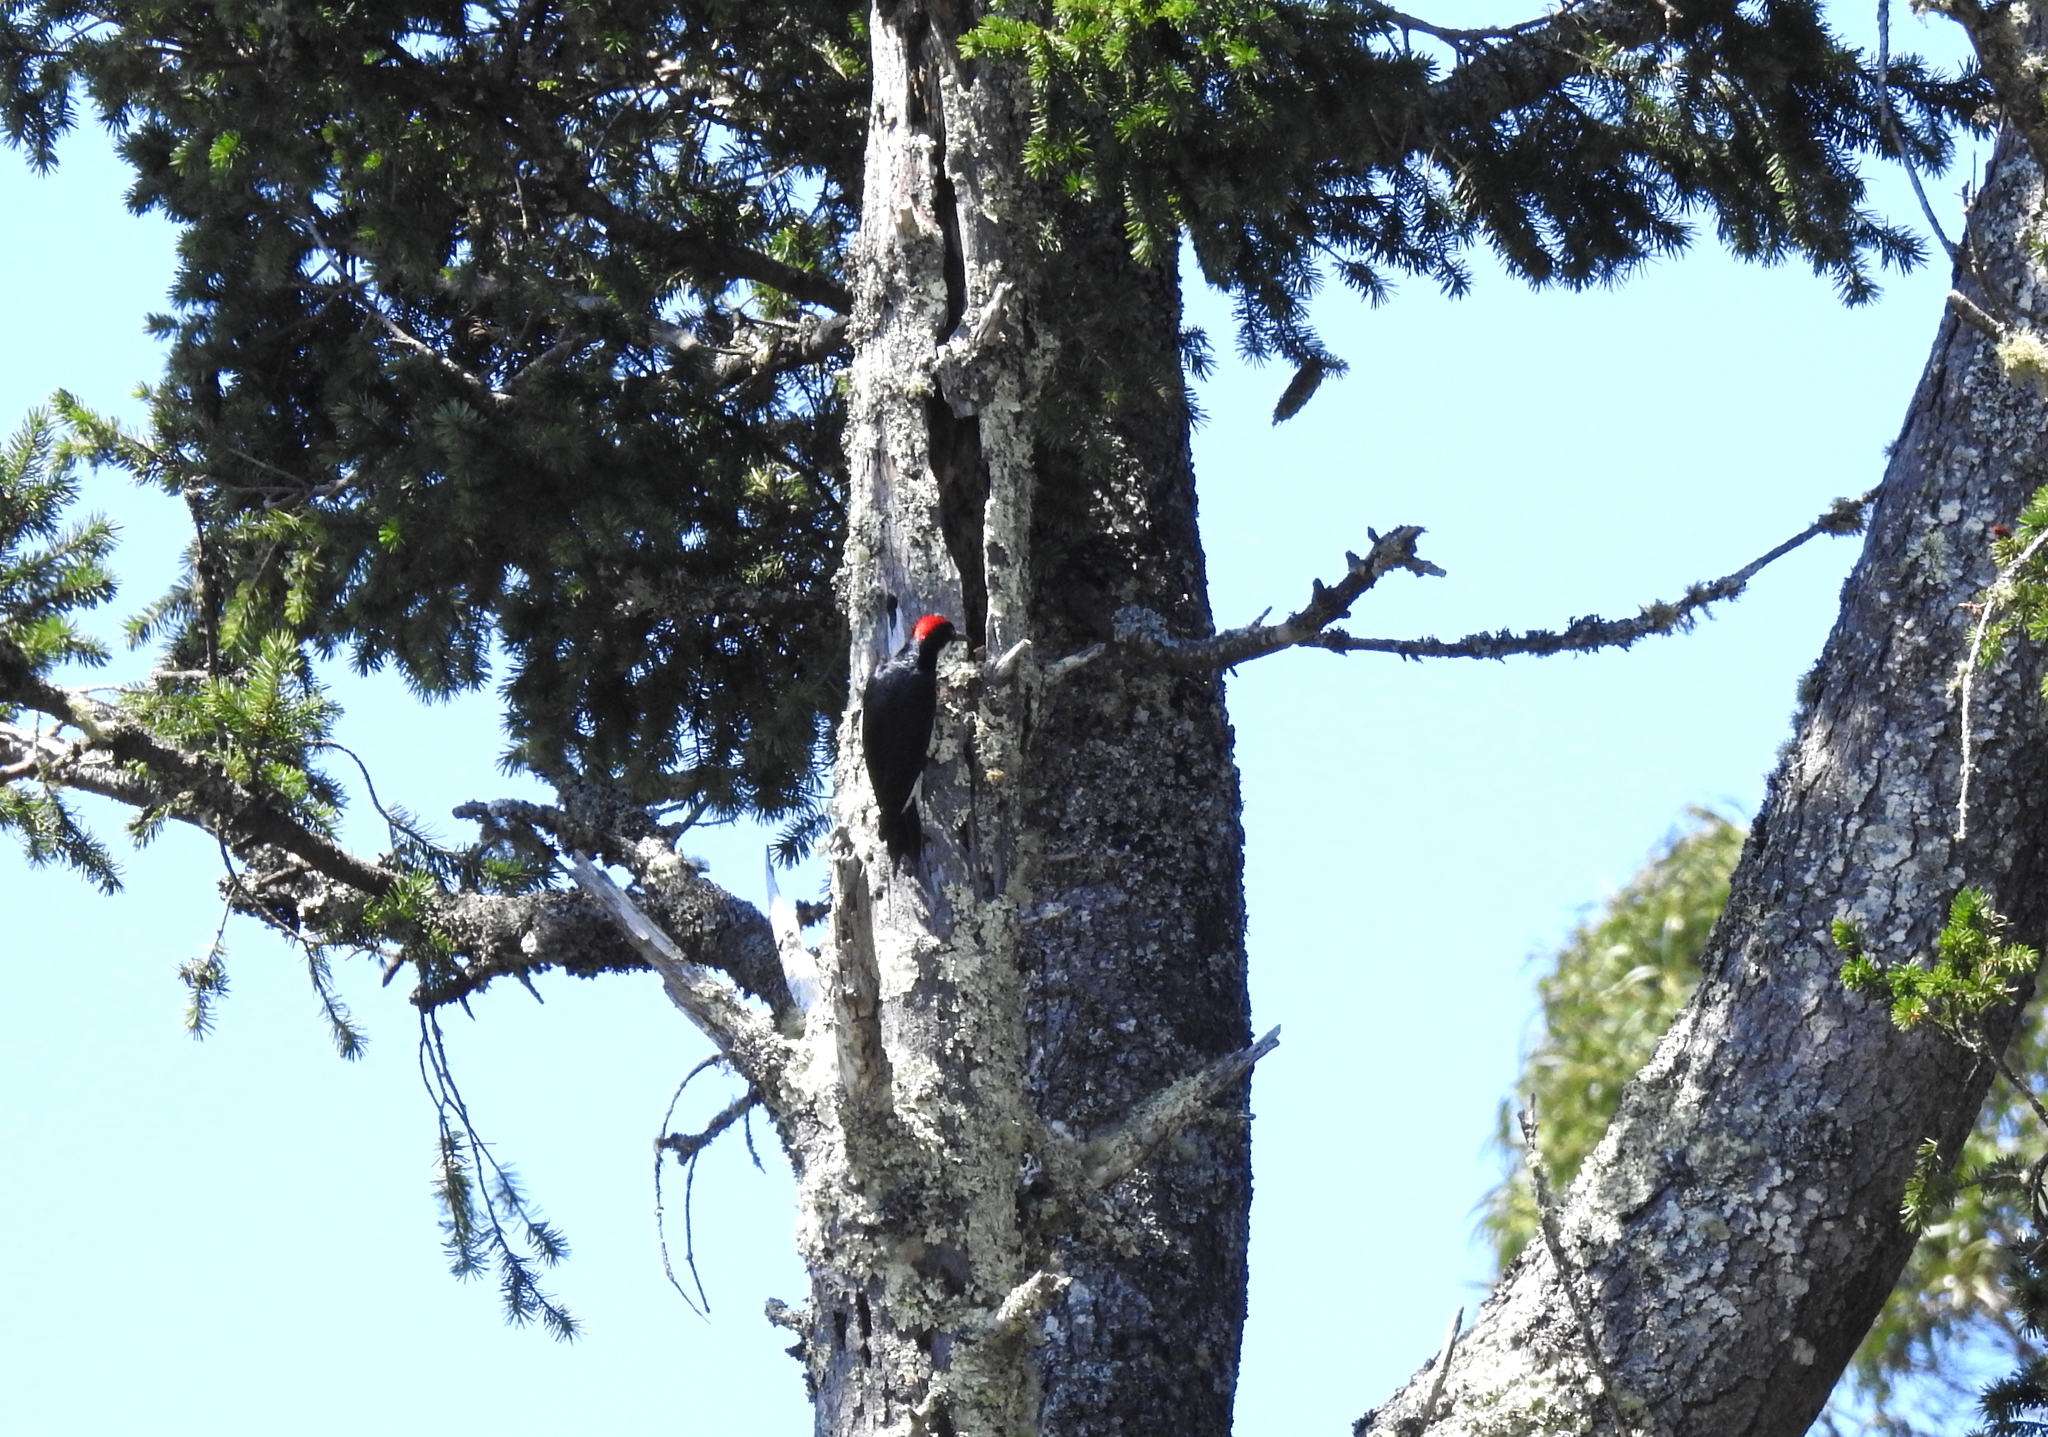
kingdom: Animalia
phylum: Chordata
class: Aves
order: Piciformes
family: Picidae
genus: Melanerpes
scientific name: Melanerpes formicivorus
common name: Acorn woodpecker
